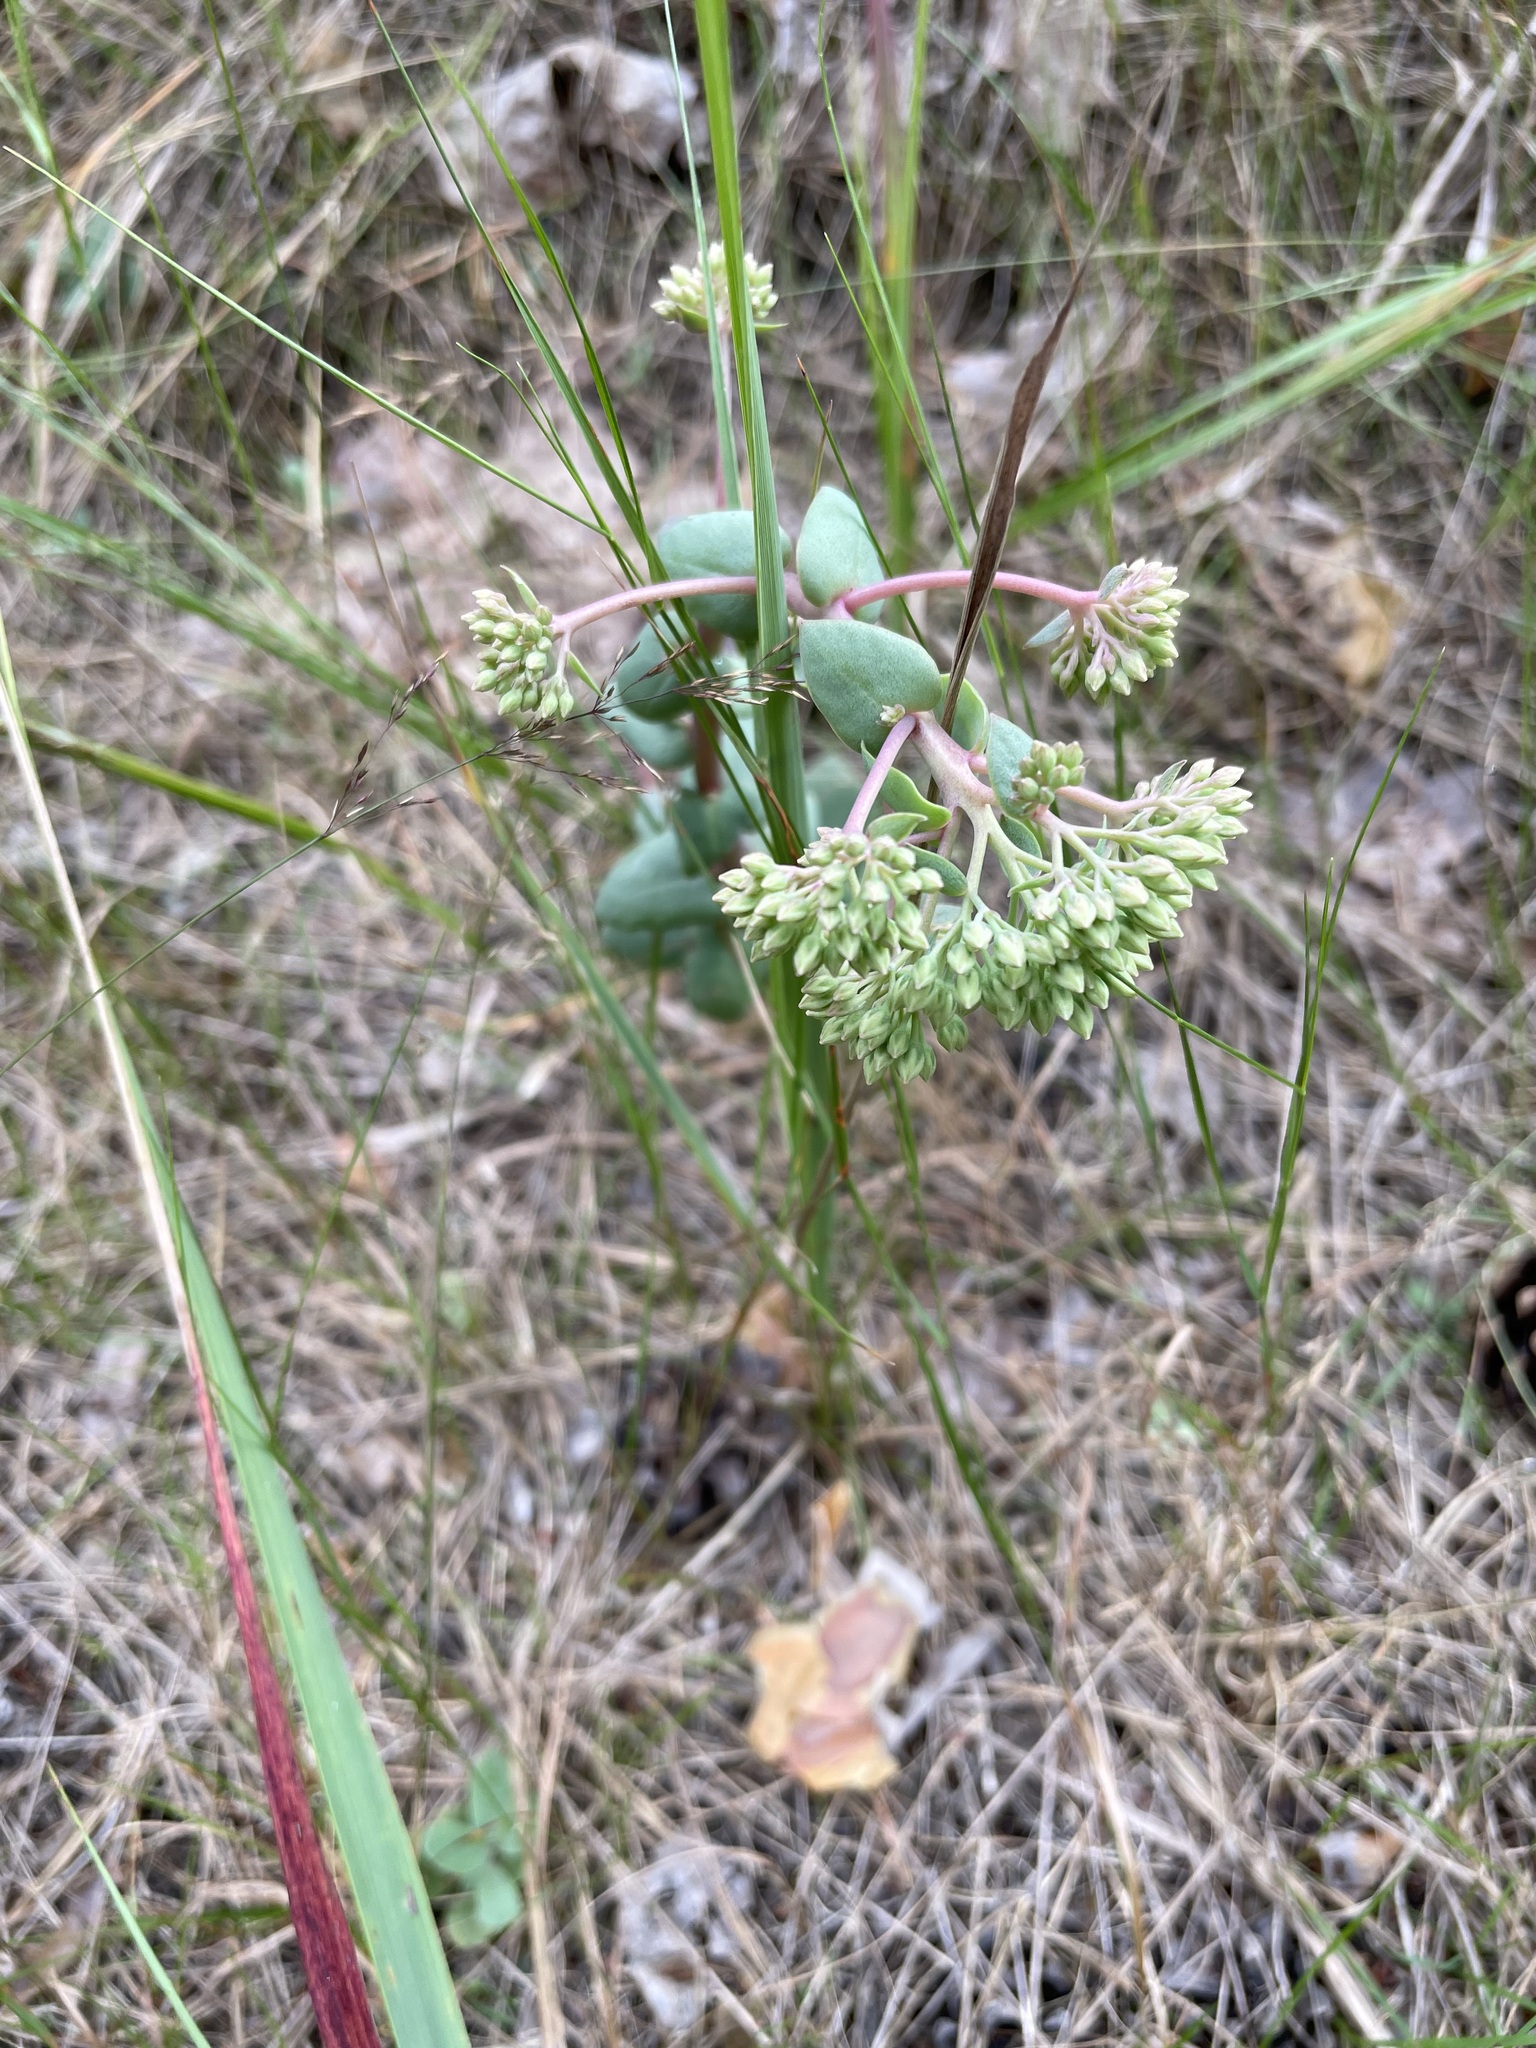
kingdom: Plantae
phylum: Tracheophyta
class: Magnoliopsida
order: Saxifragales
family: Crassulaceae
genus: Hylotelephium
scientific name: Hylotelephium maximum
